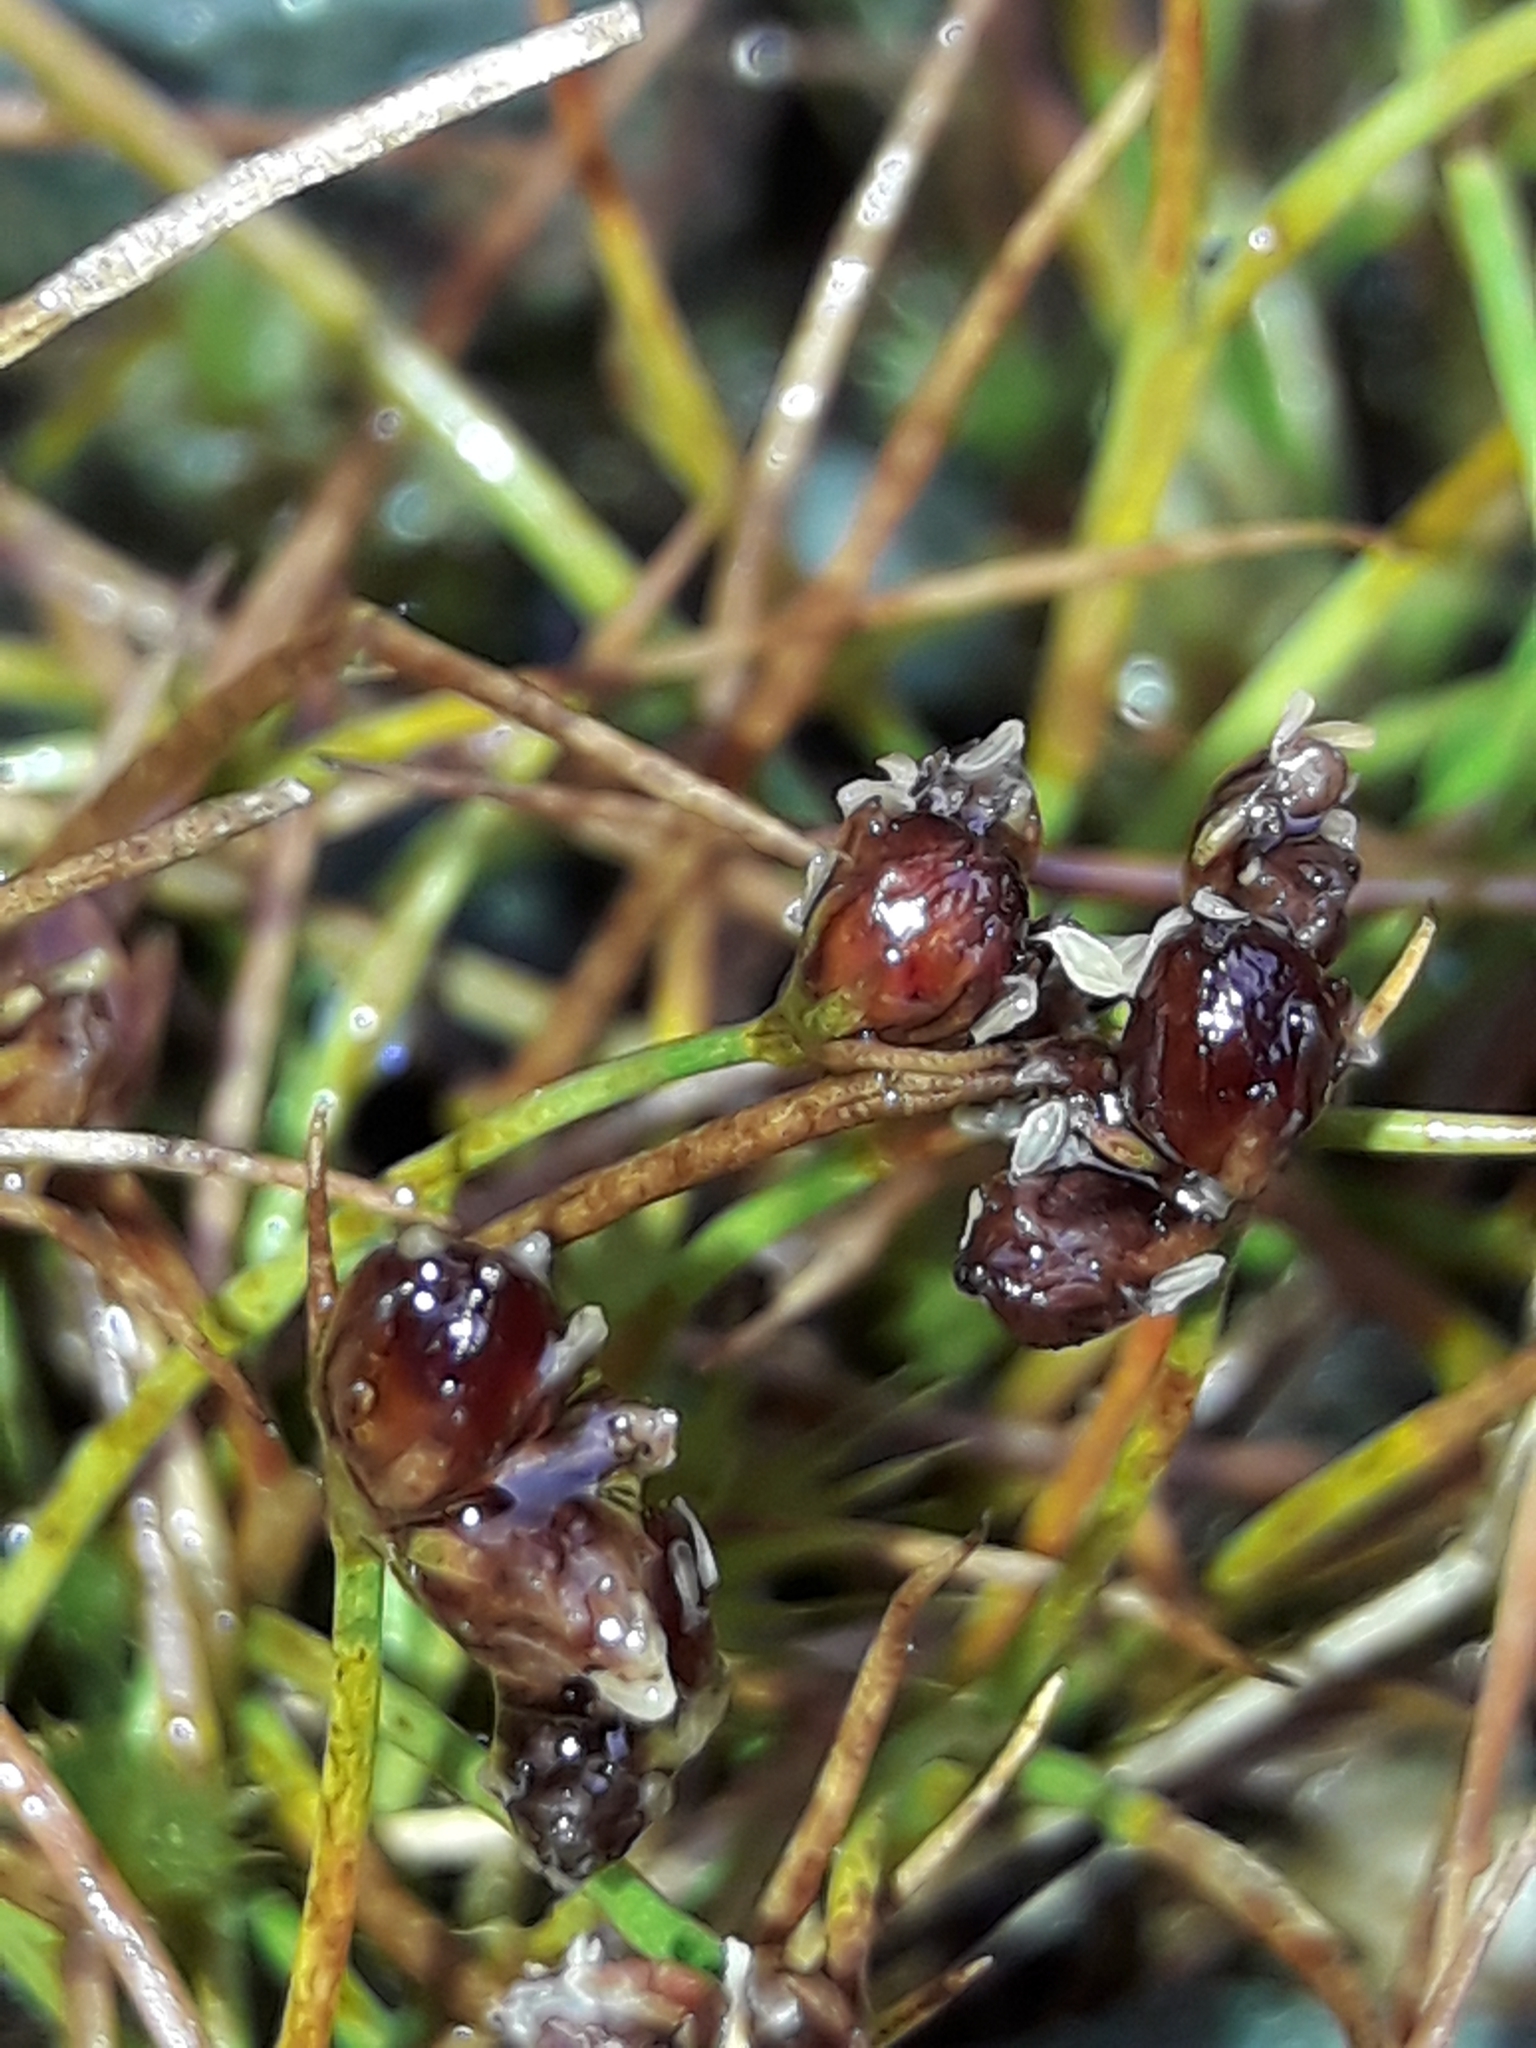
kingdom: Plantae
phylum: Tracheophyta
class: Liliopsida
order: Poales
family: Juncaceae
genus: Juncus
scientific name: Juncus novae-zelandiae
